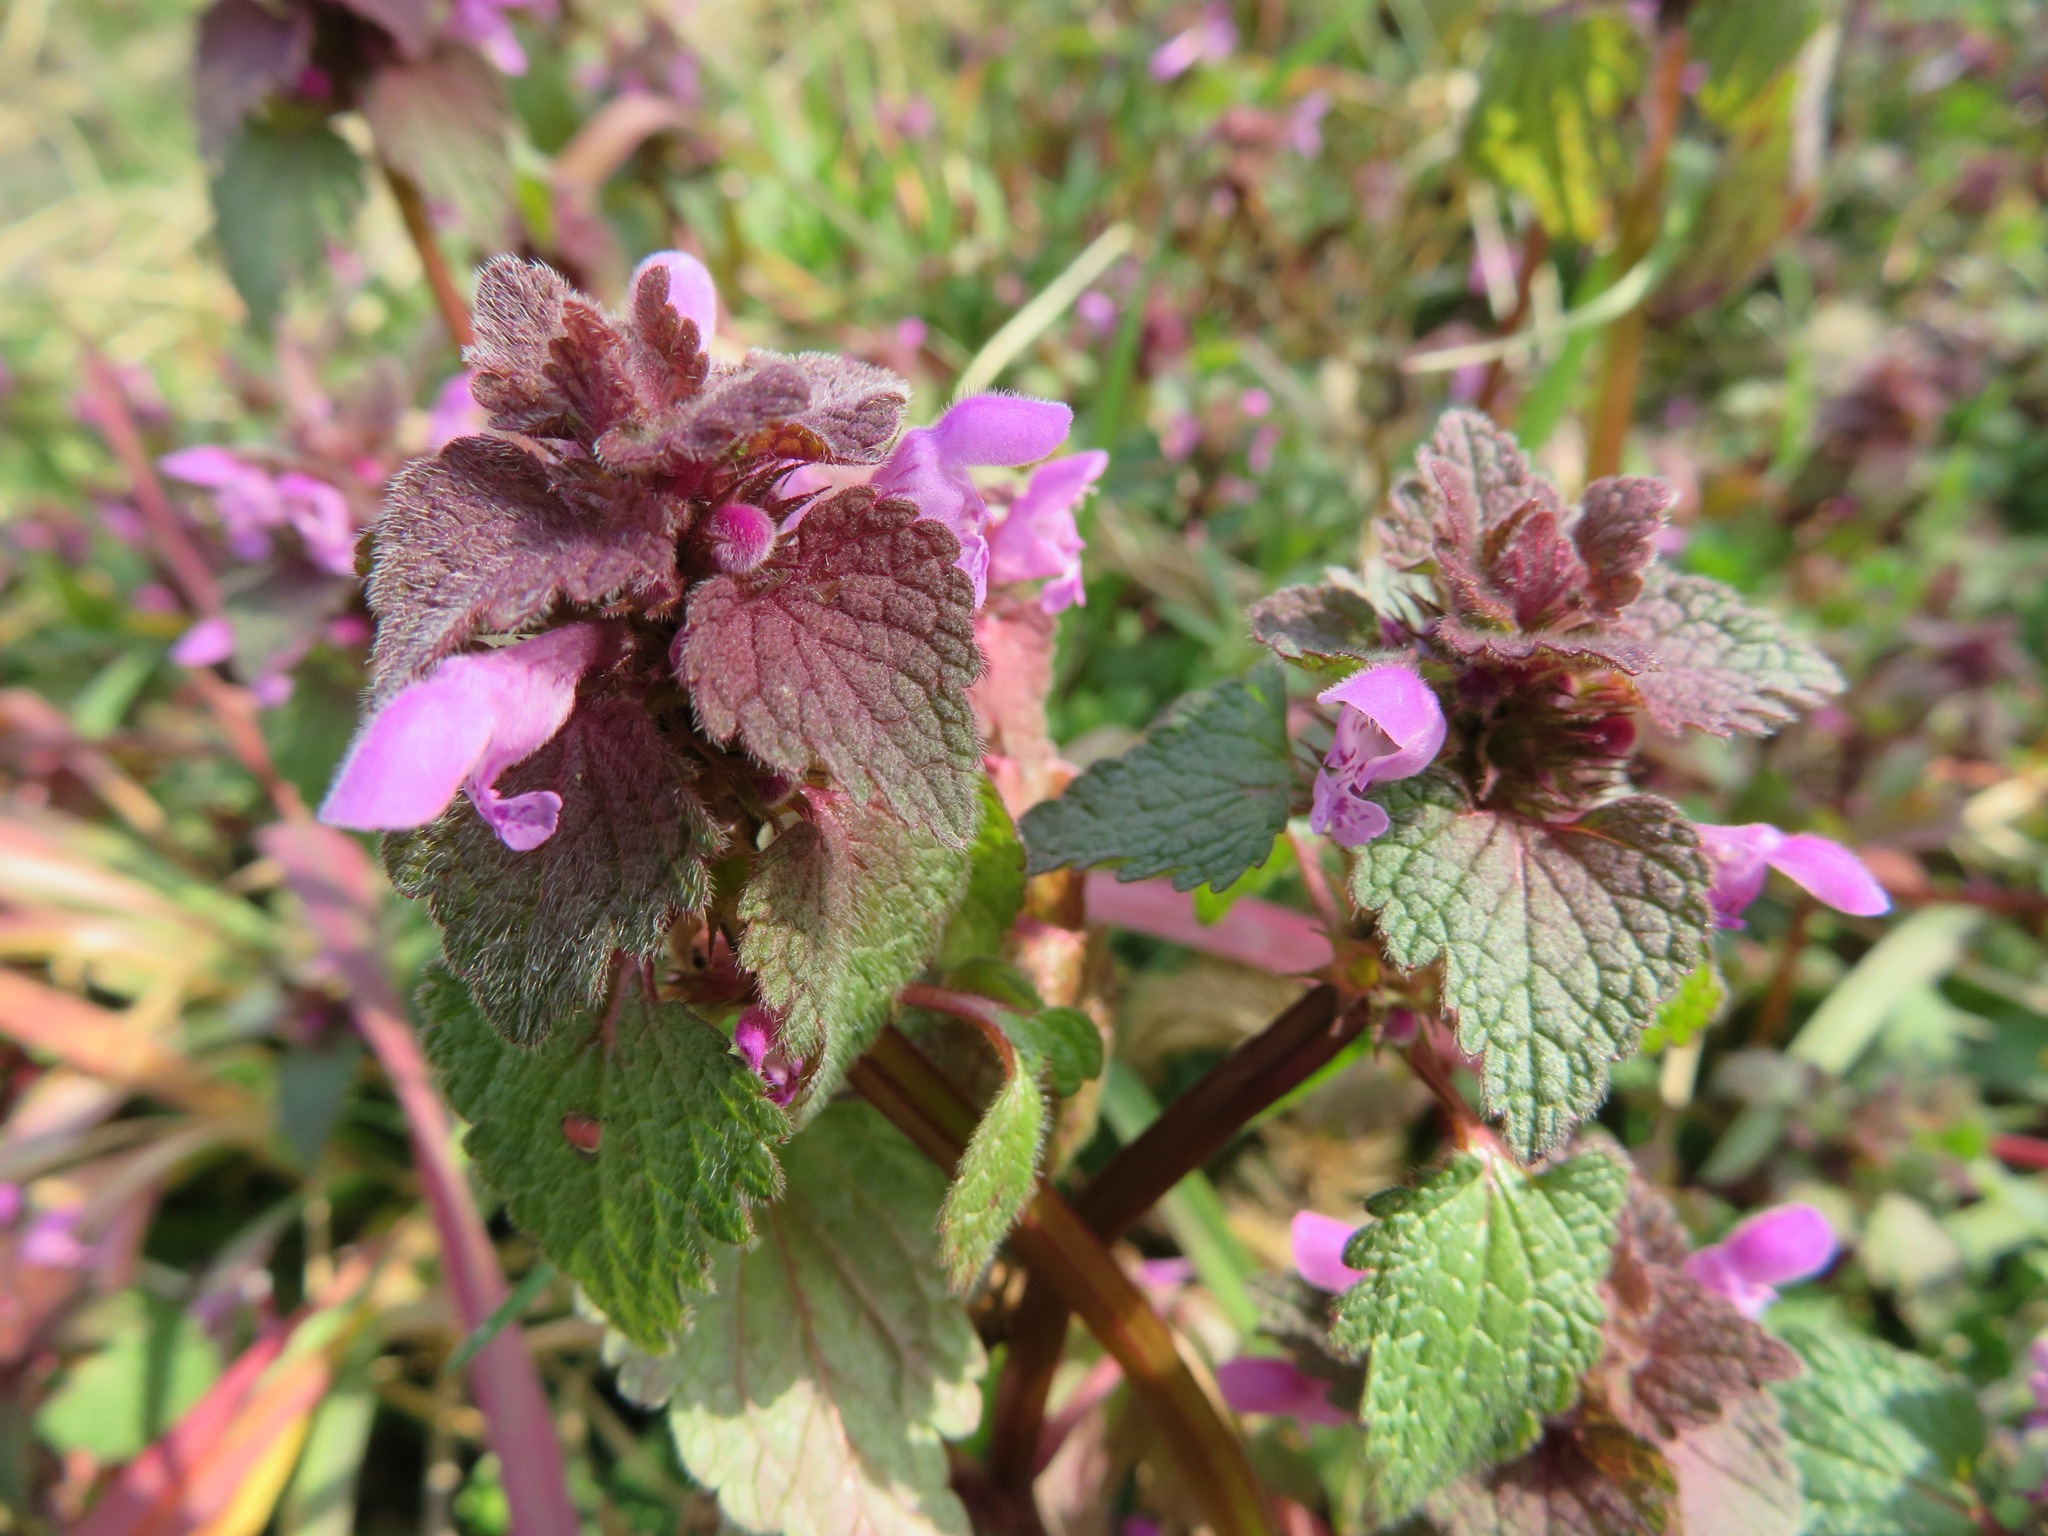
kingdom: Plantae
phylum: Tracheophyta
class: Magnoliopsida
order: Lamiales
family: Lamiaceae
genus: Lamium
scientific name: Lamium purpureum
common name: Red dead-nettle
